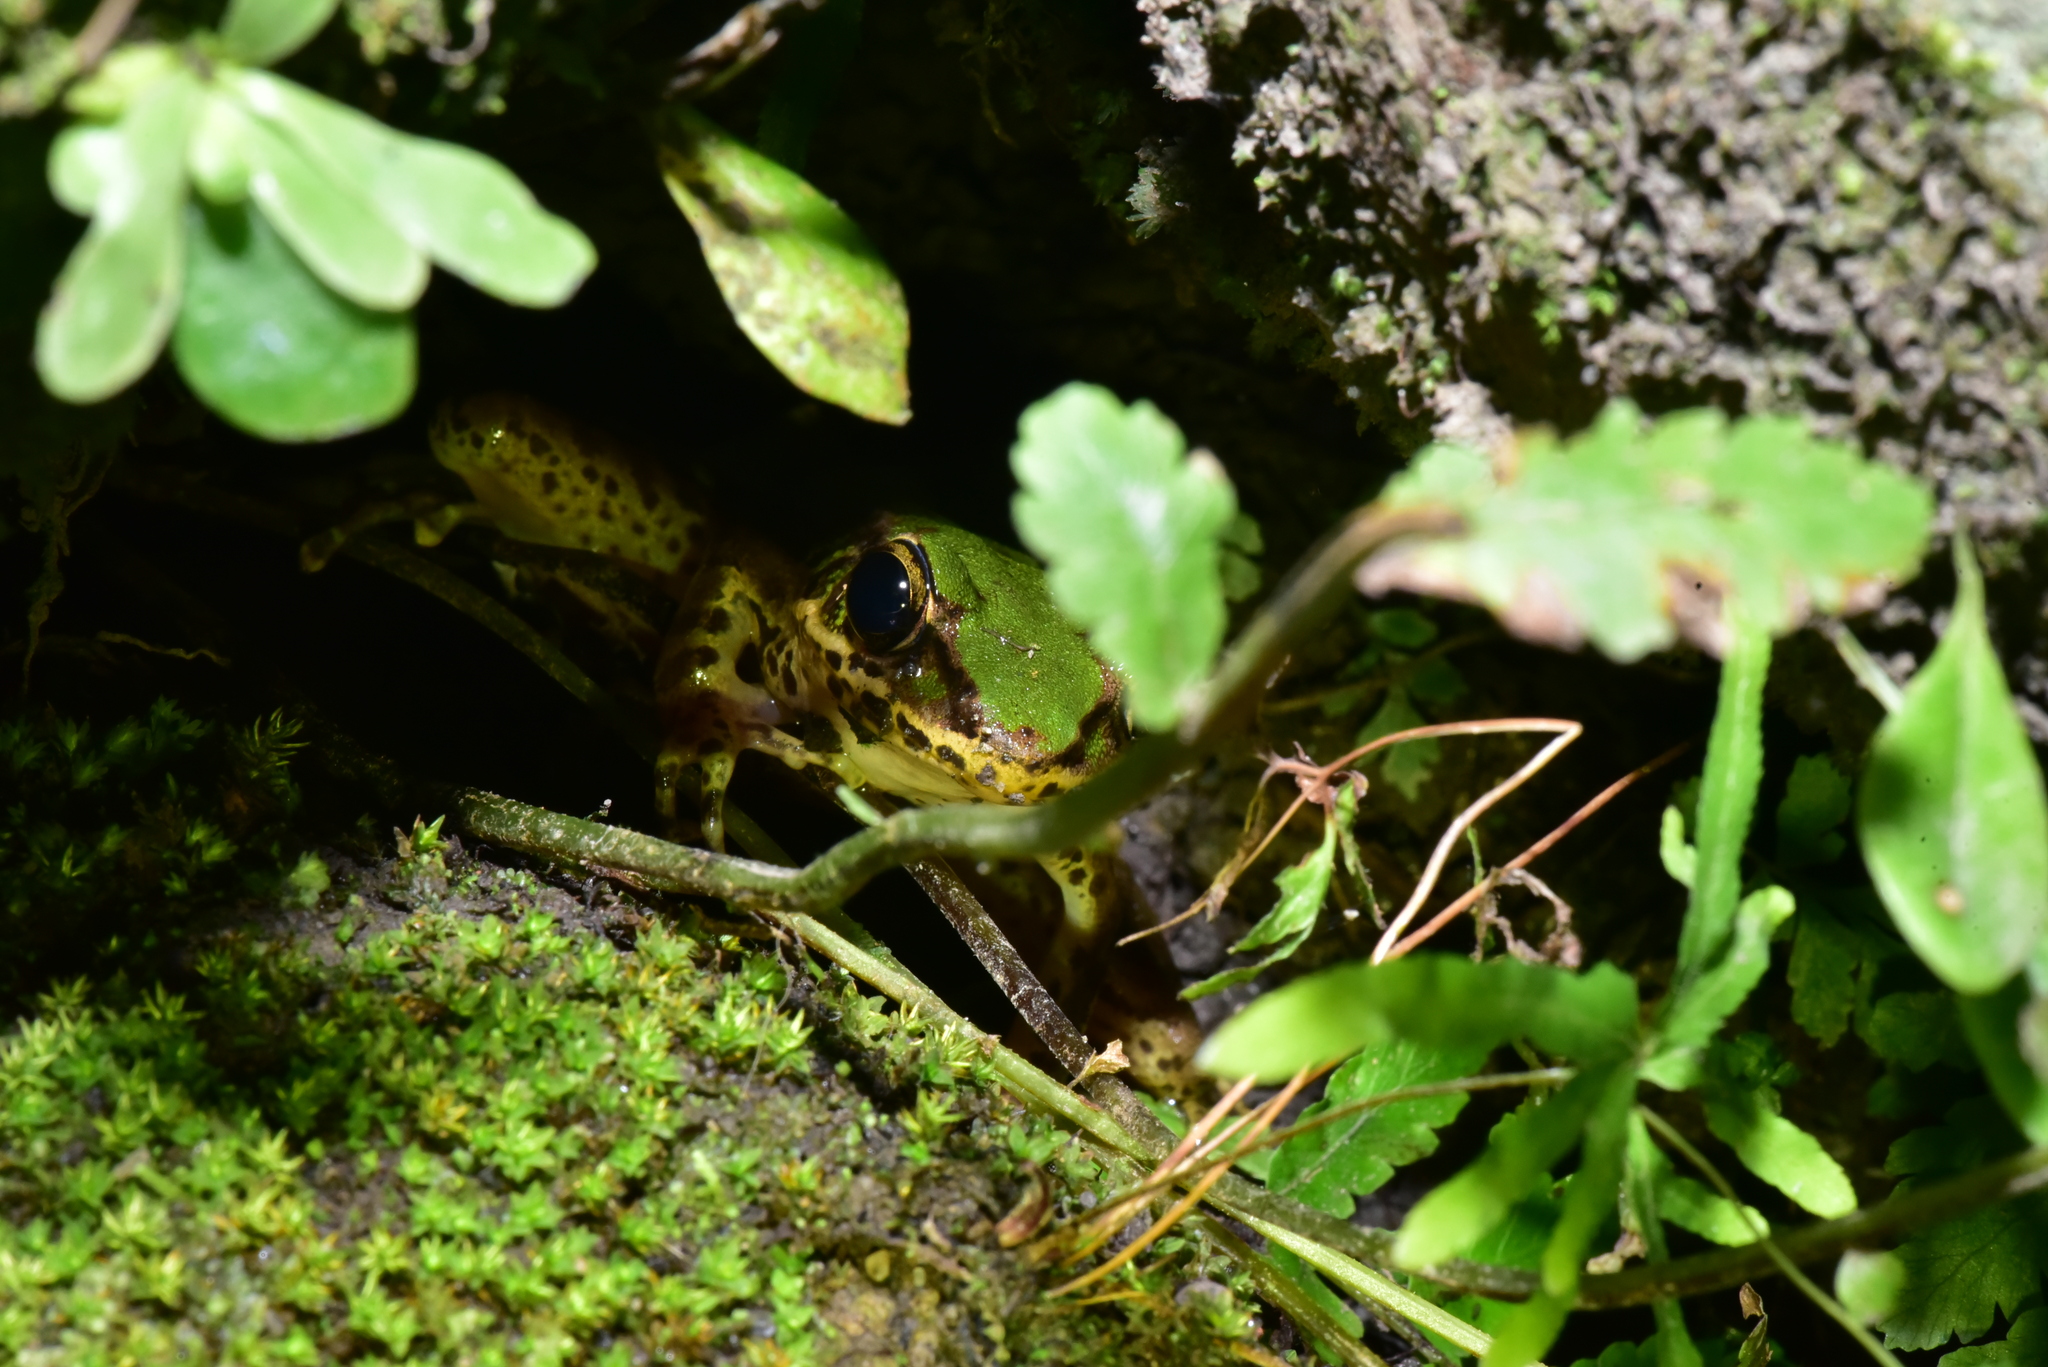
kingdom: Animalia
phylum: Chordata
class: Amphibia
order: Anura
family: Ranidae
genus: Odorrana
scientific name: Odorrana swinhoana
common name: Bangkimtsing frog
